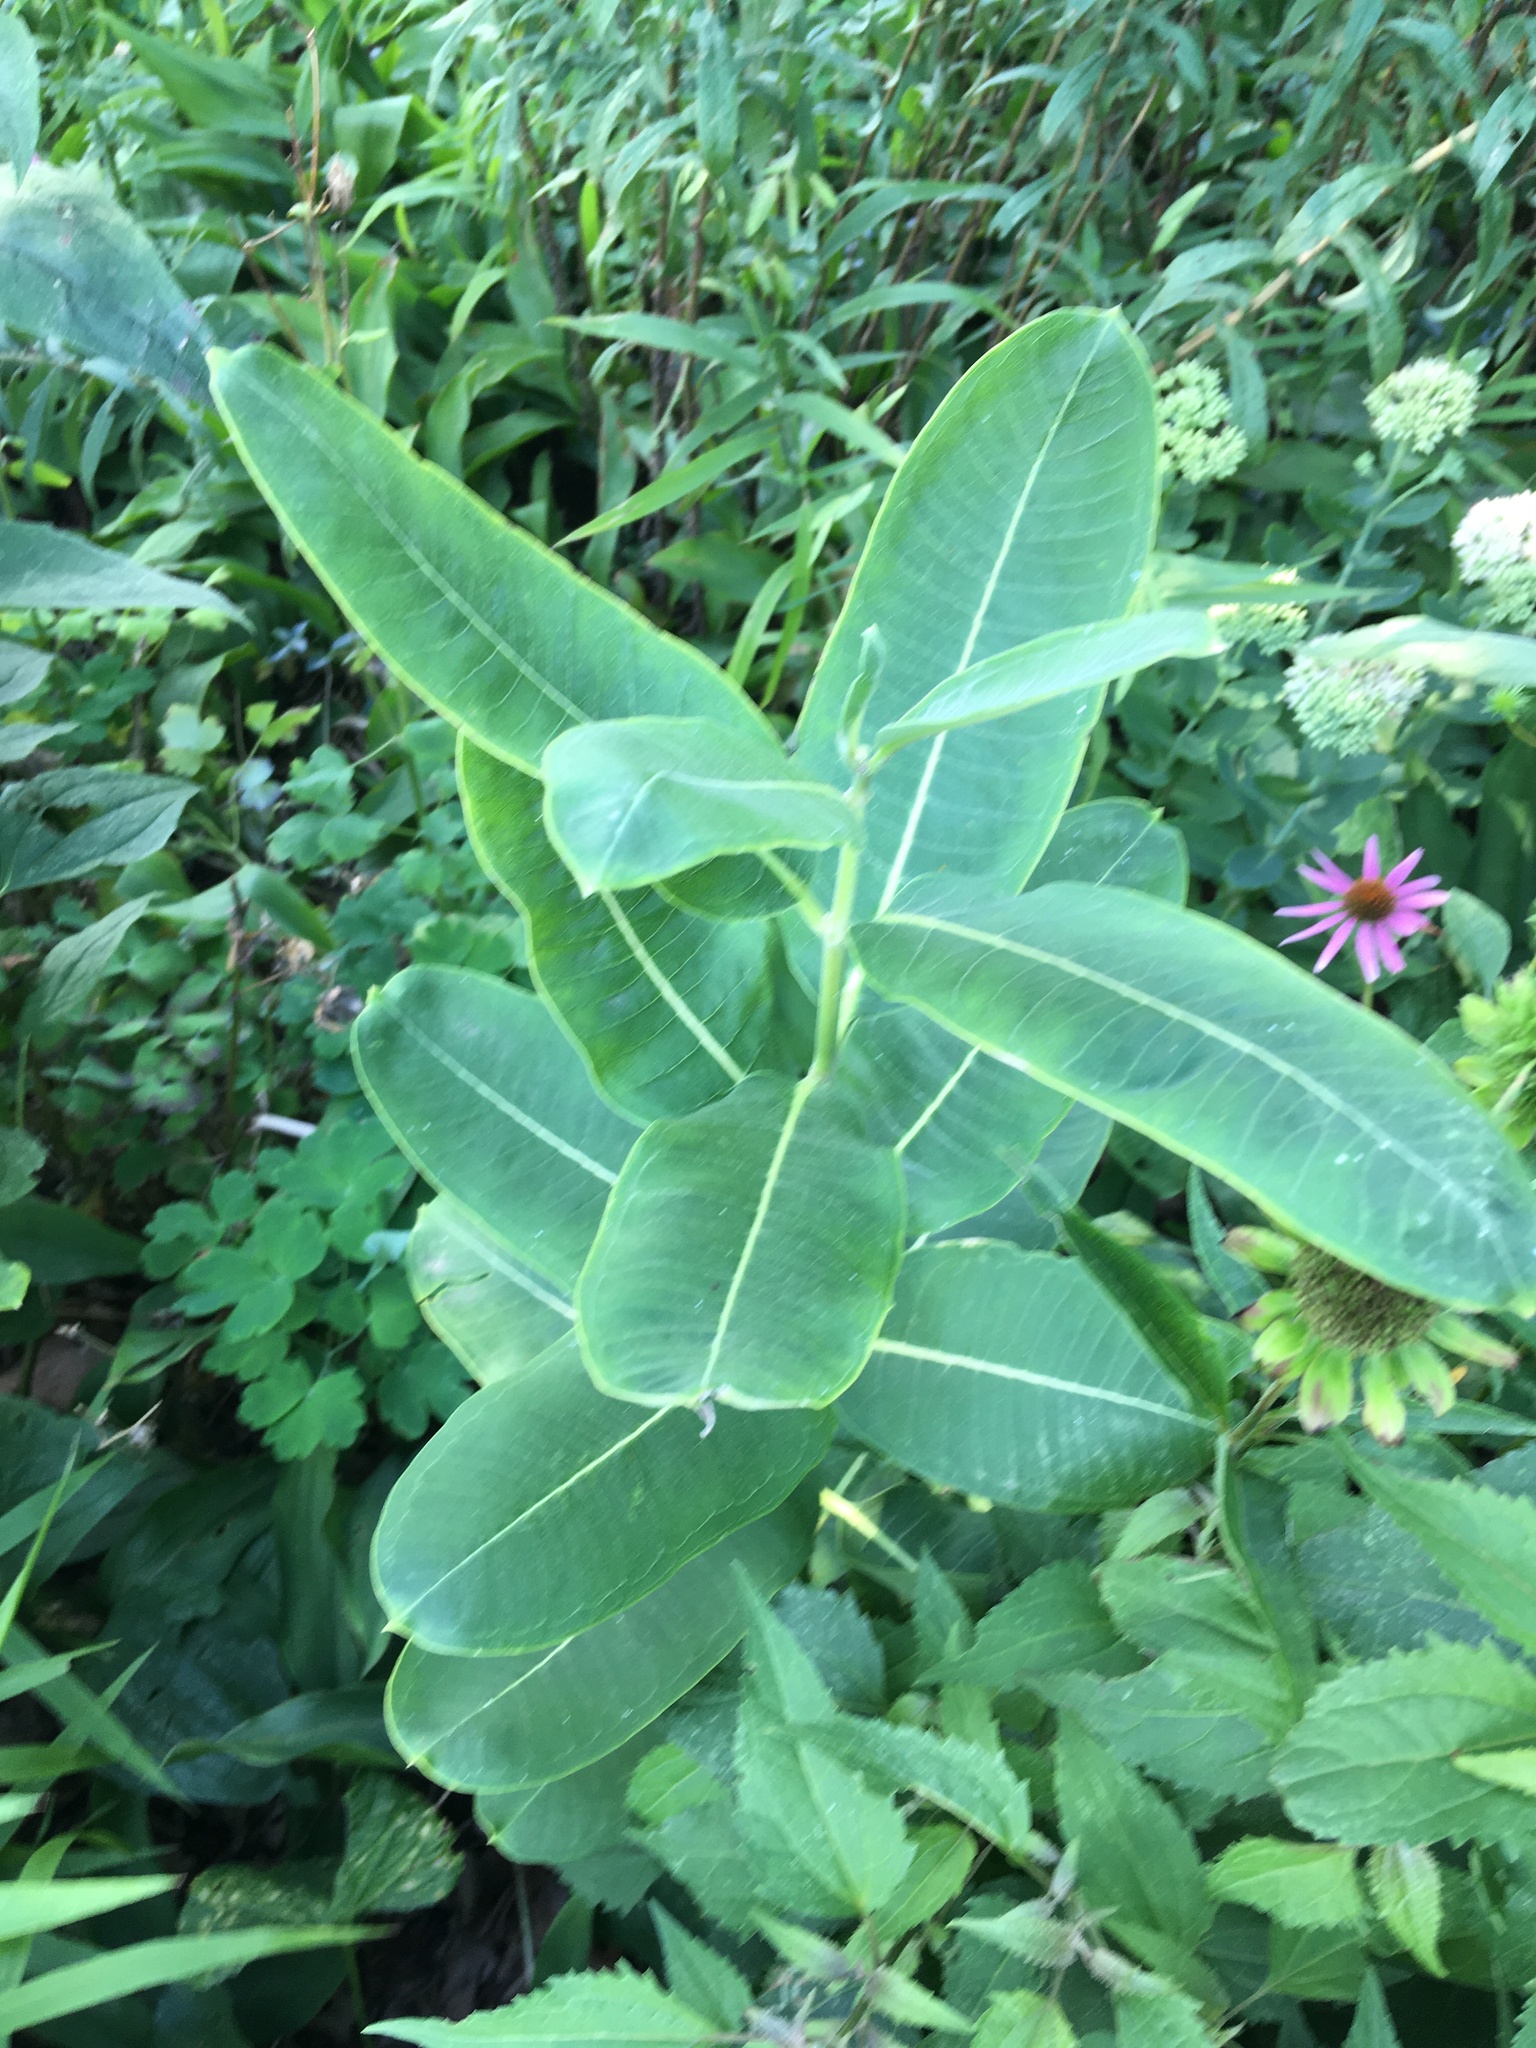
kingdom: Plantae
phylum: Tracheophyta
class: Magnoliopsida
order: Gentianales
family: Apocynaceae
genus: Asclepias
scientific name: Asclepias syriaca
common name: Common milkweed
